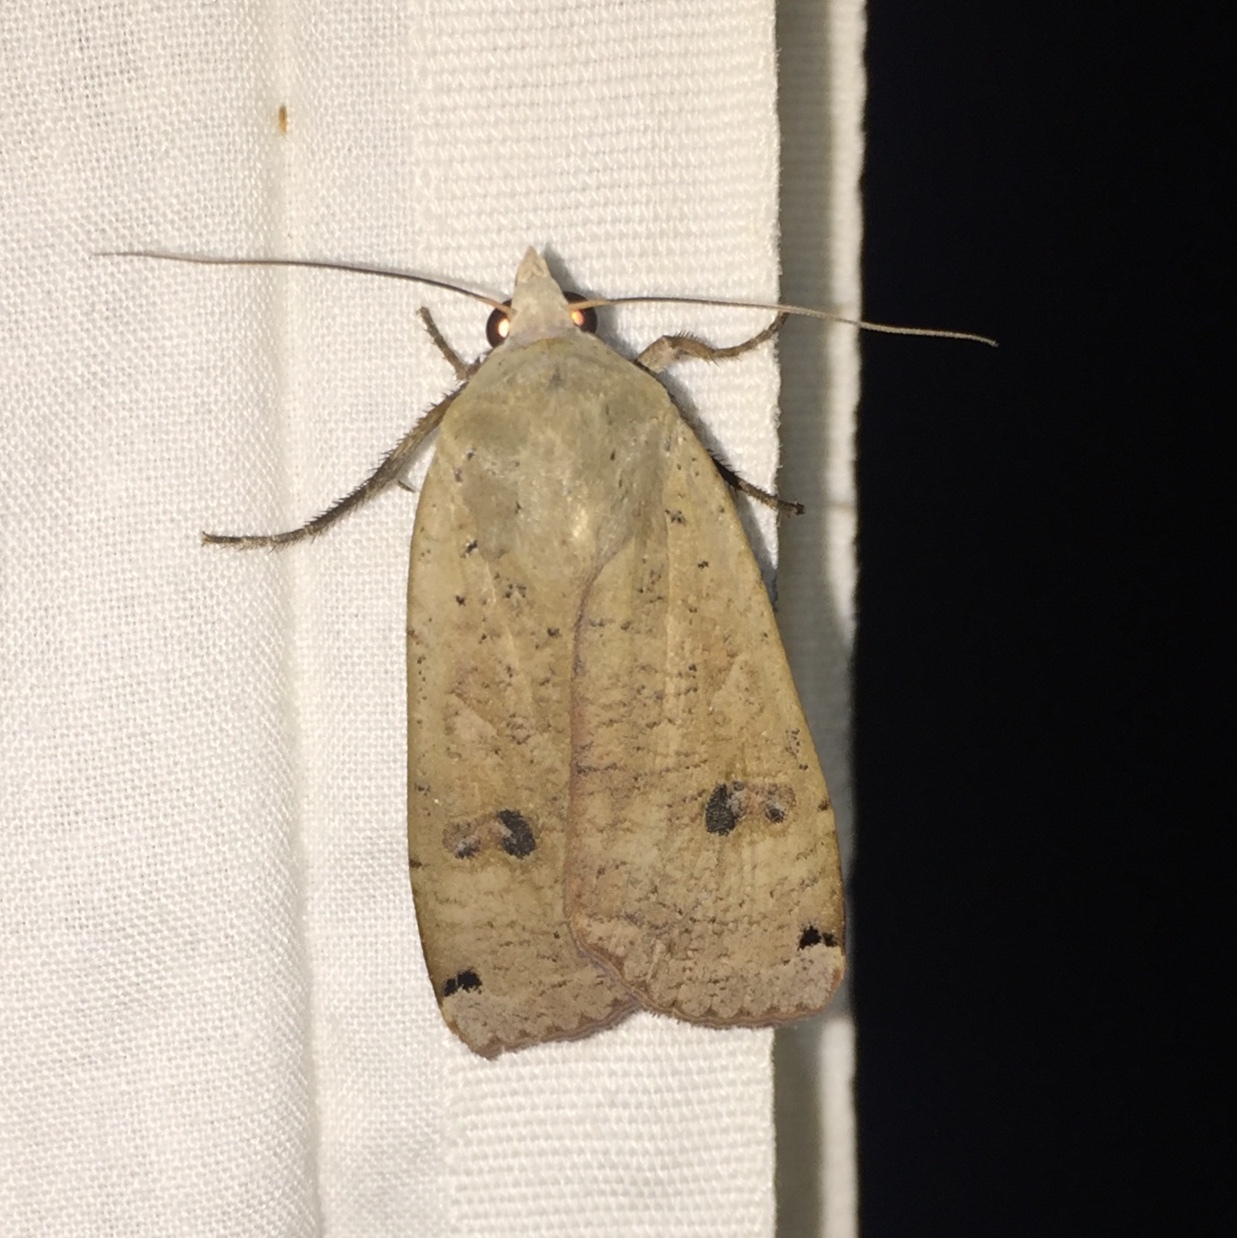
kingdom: Animalia
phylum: Arthropoda
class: Insecta
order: Lepidoptera
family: Noctuidae
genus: Noctua
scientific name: Noctua pronuba
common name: Large yellow underwing
